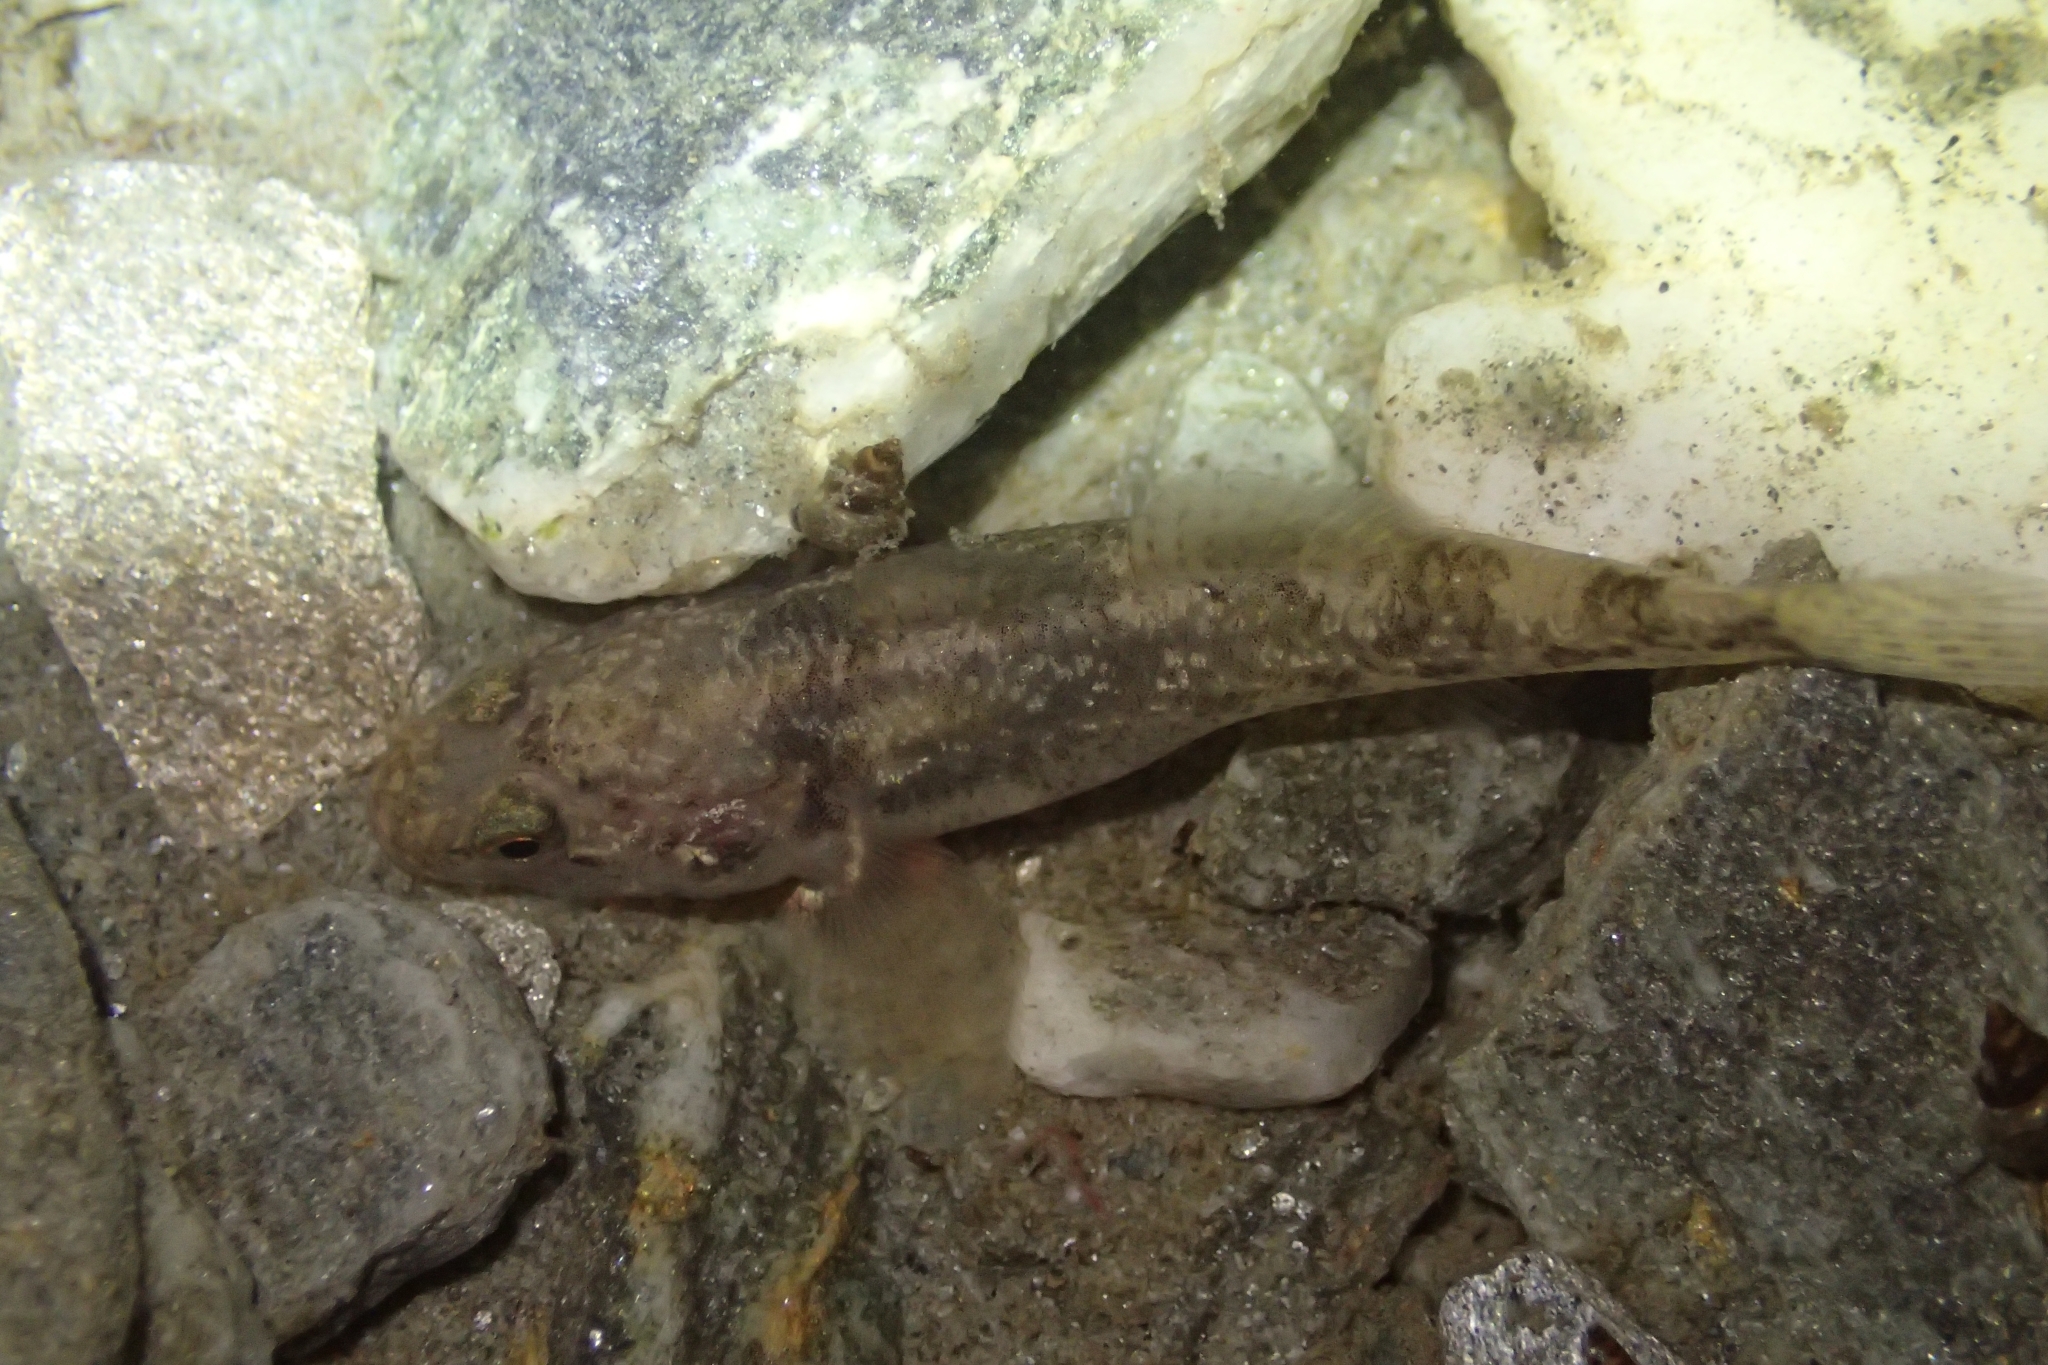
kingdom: Animalia
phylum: Chordata
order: Perciformes
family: Eleotridae
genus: Gobiomorphus
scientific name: Gobiomorphus cotidianus
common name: Common bully
